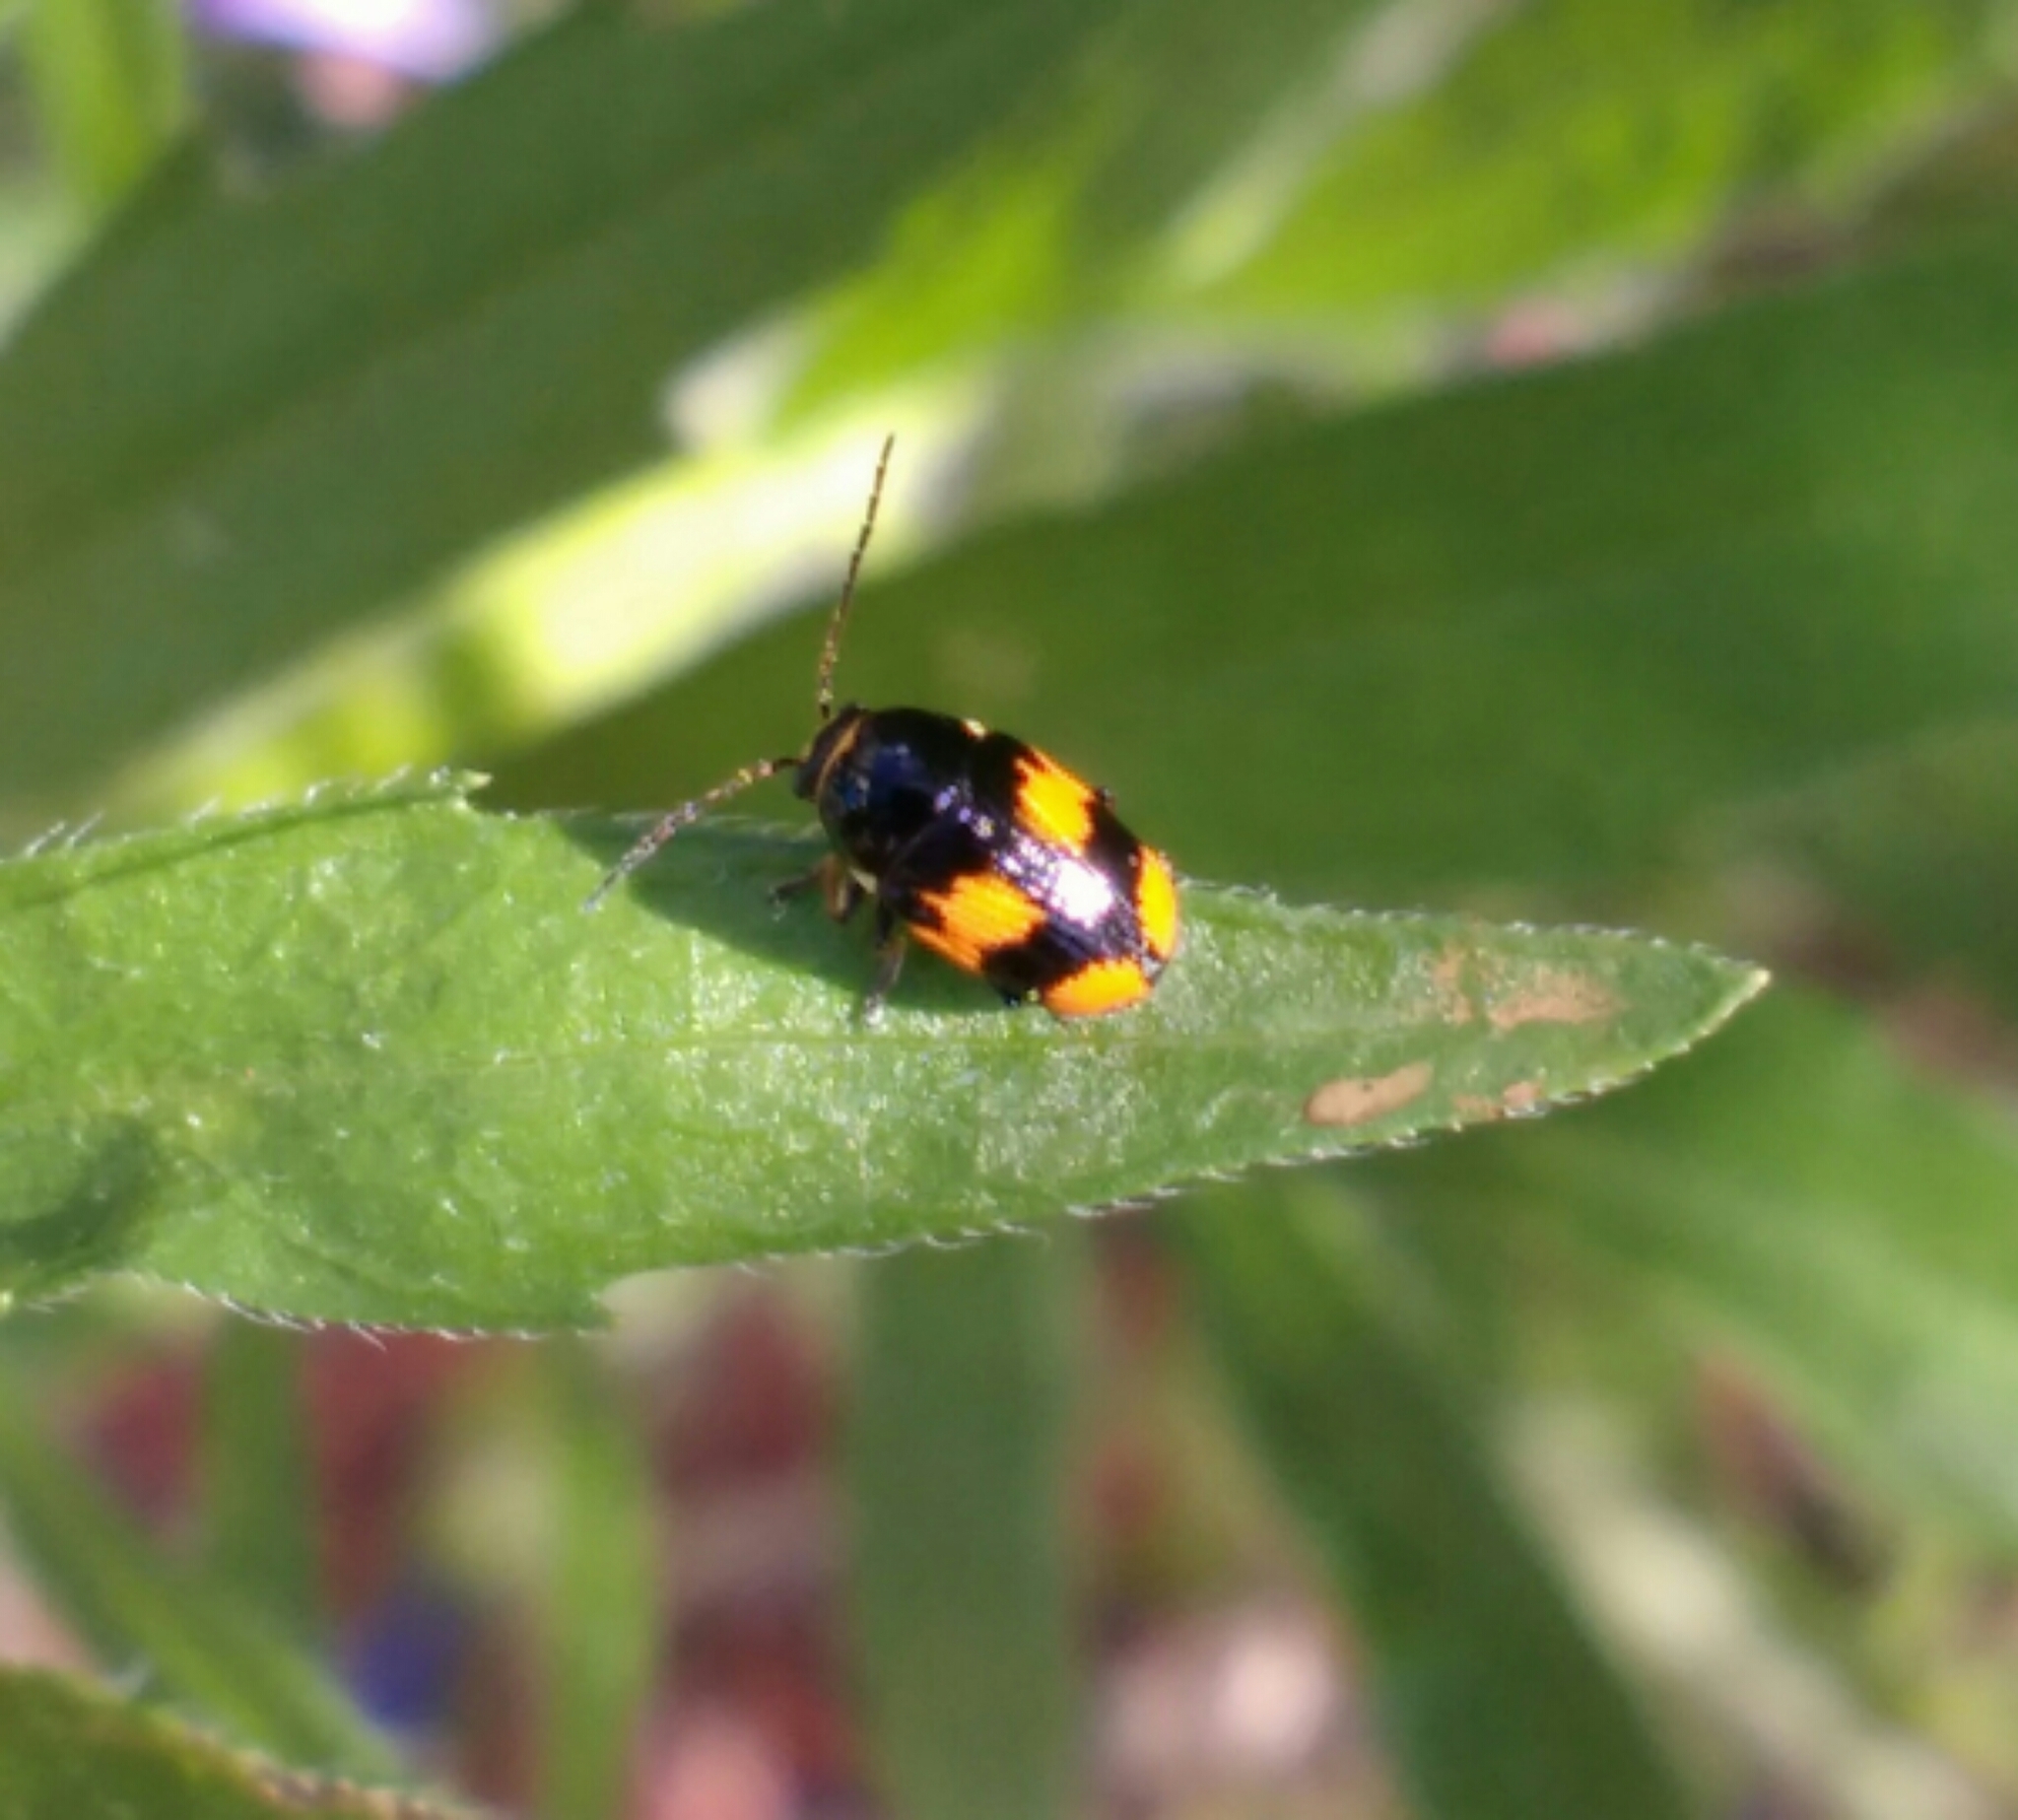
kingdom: Animalia
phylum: Arthropoda
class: Insecta
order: Coleoptera
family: Chrysomelidae
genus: Cryptocephalus
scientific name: Cryptocephalus moraei
